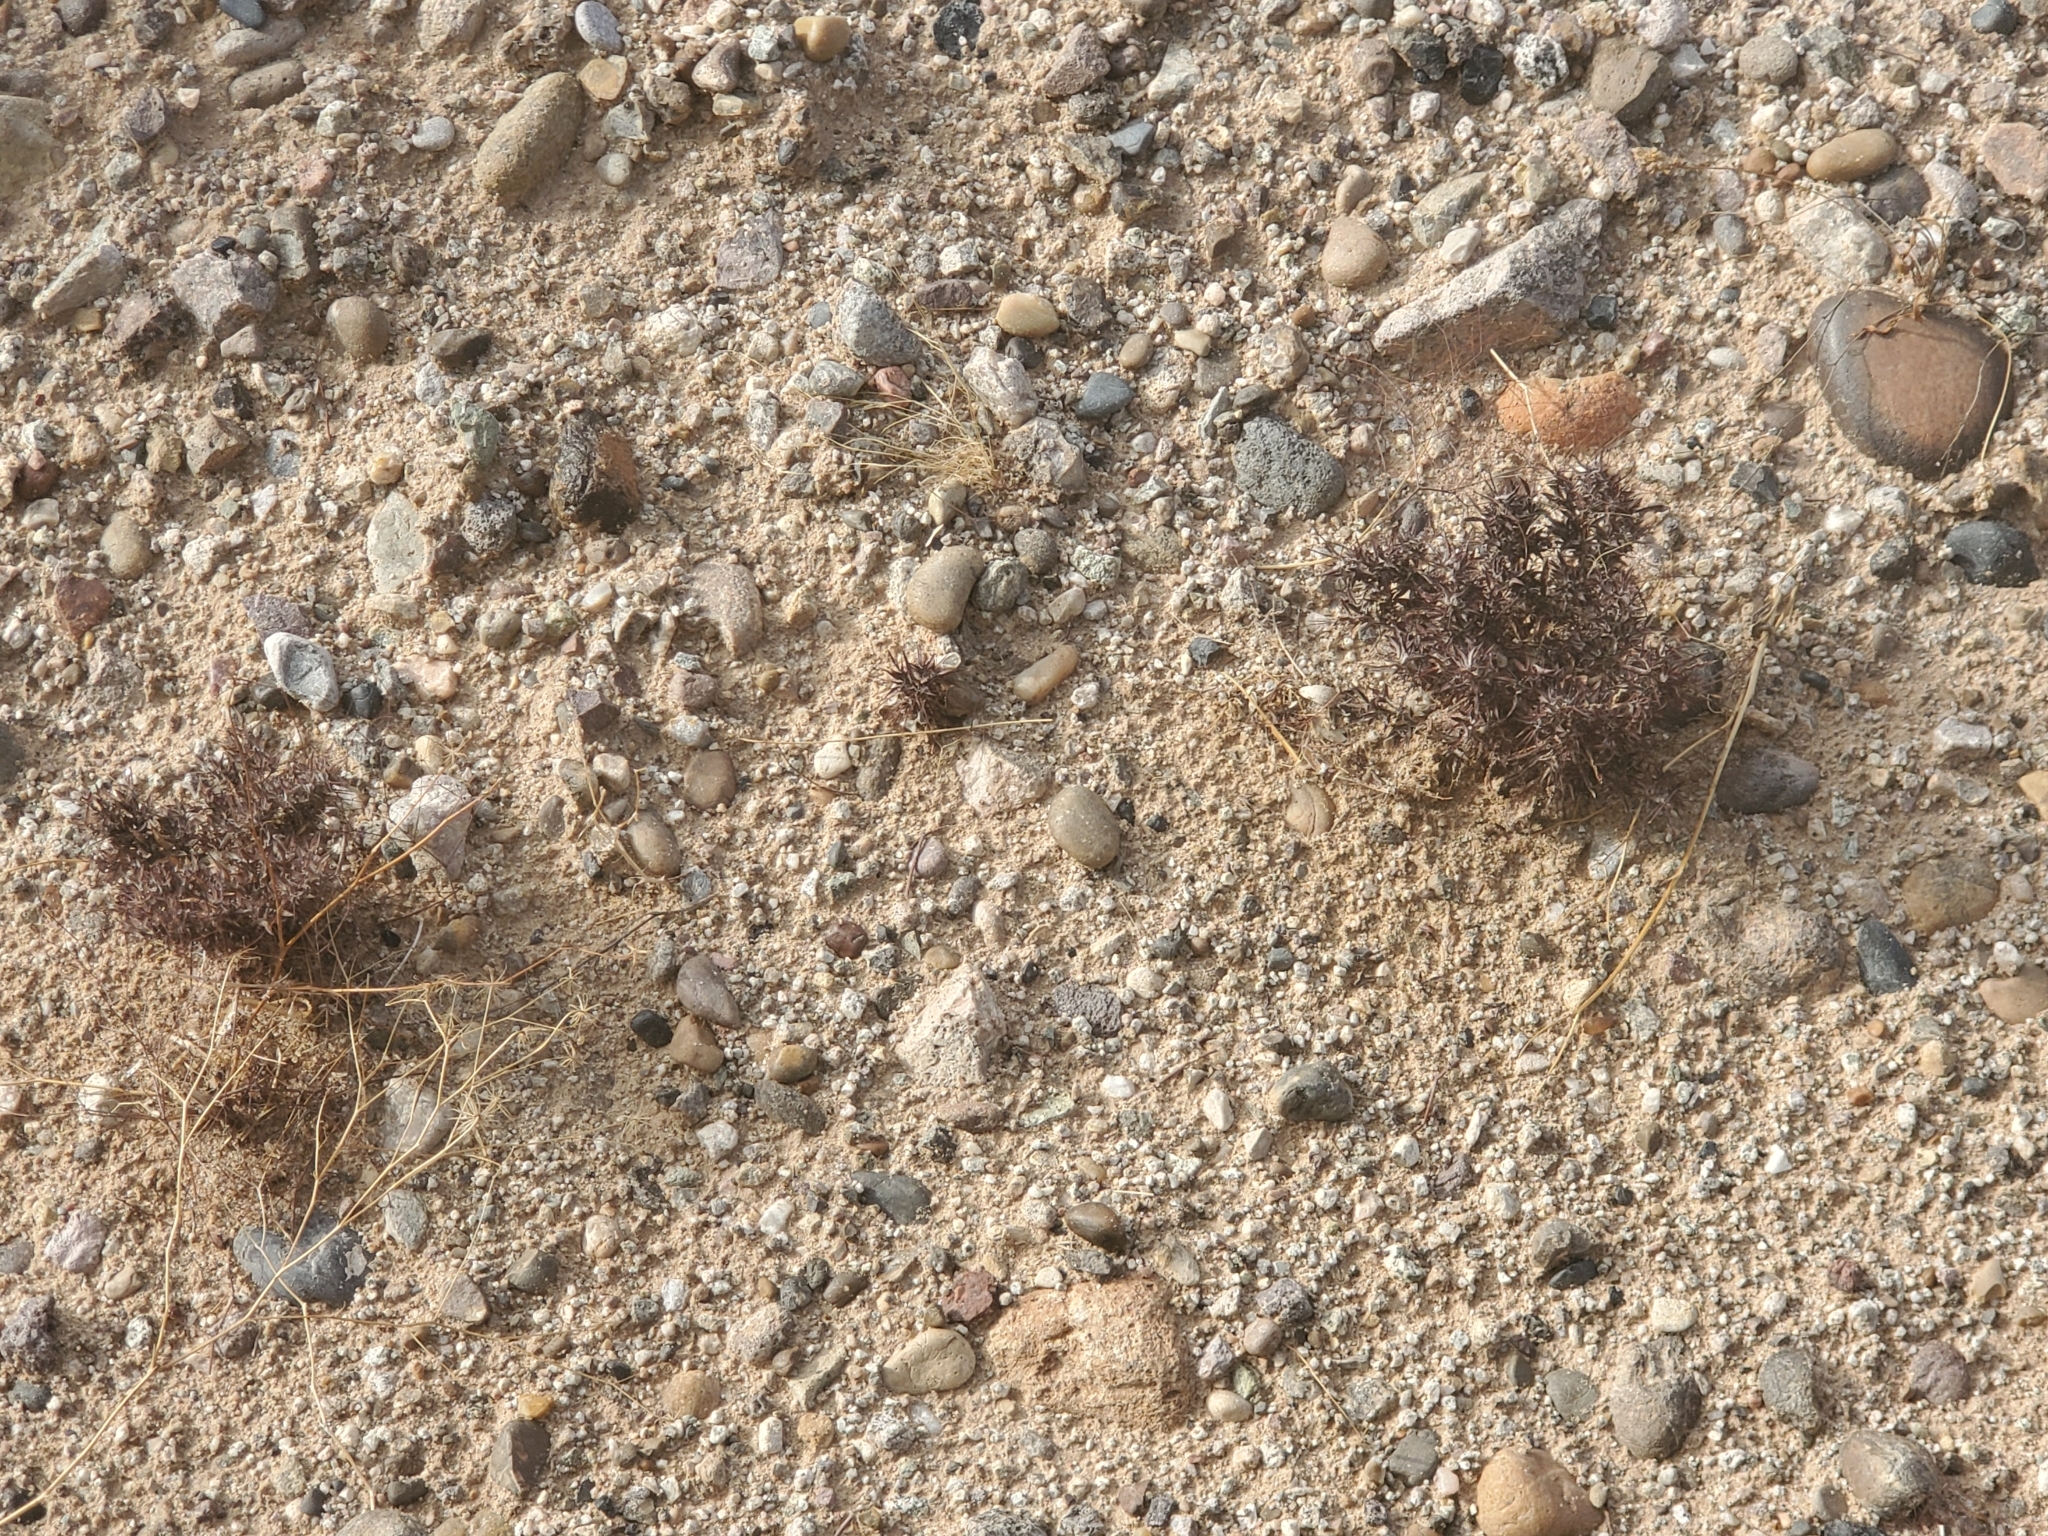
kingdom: Plantae
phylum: Tracheophyta
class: Magnoliopsida
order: Caryophyllales
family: Polygonaceae
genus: Chorizanthe
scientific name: Chorizanthe rigida
